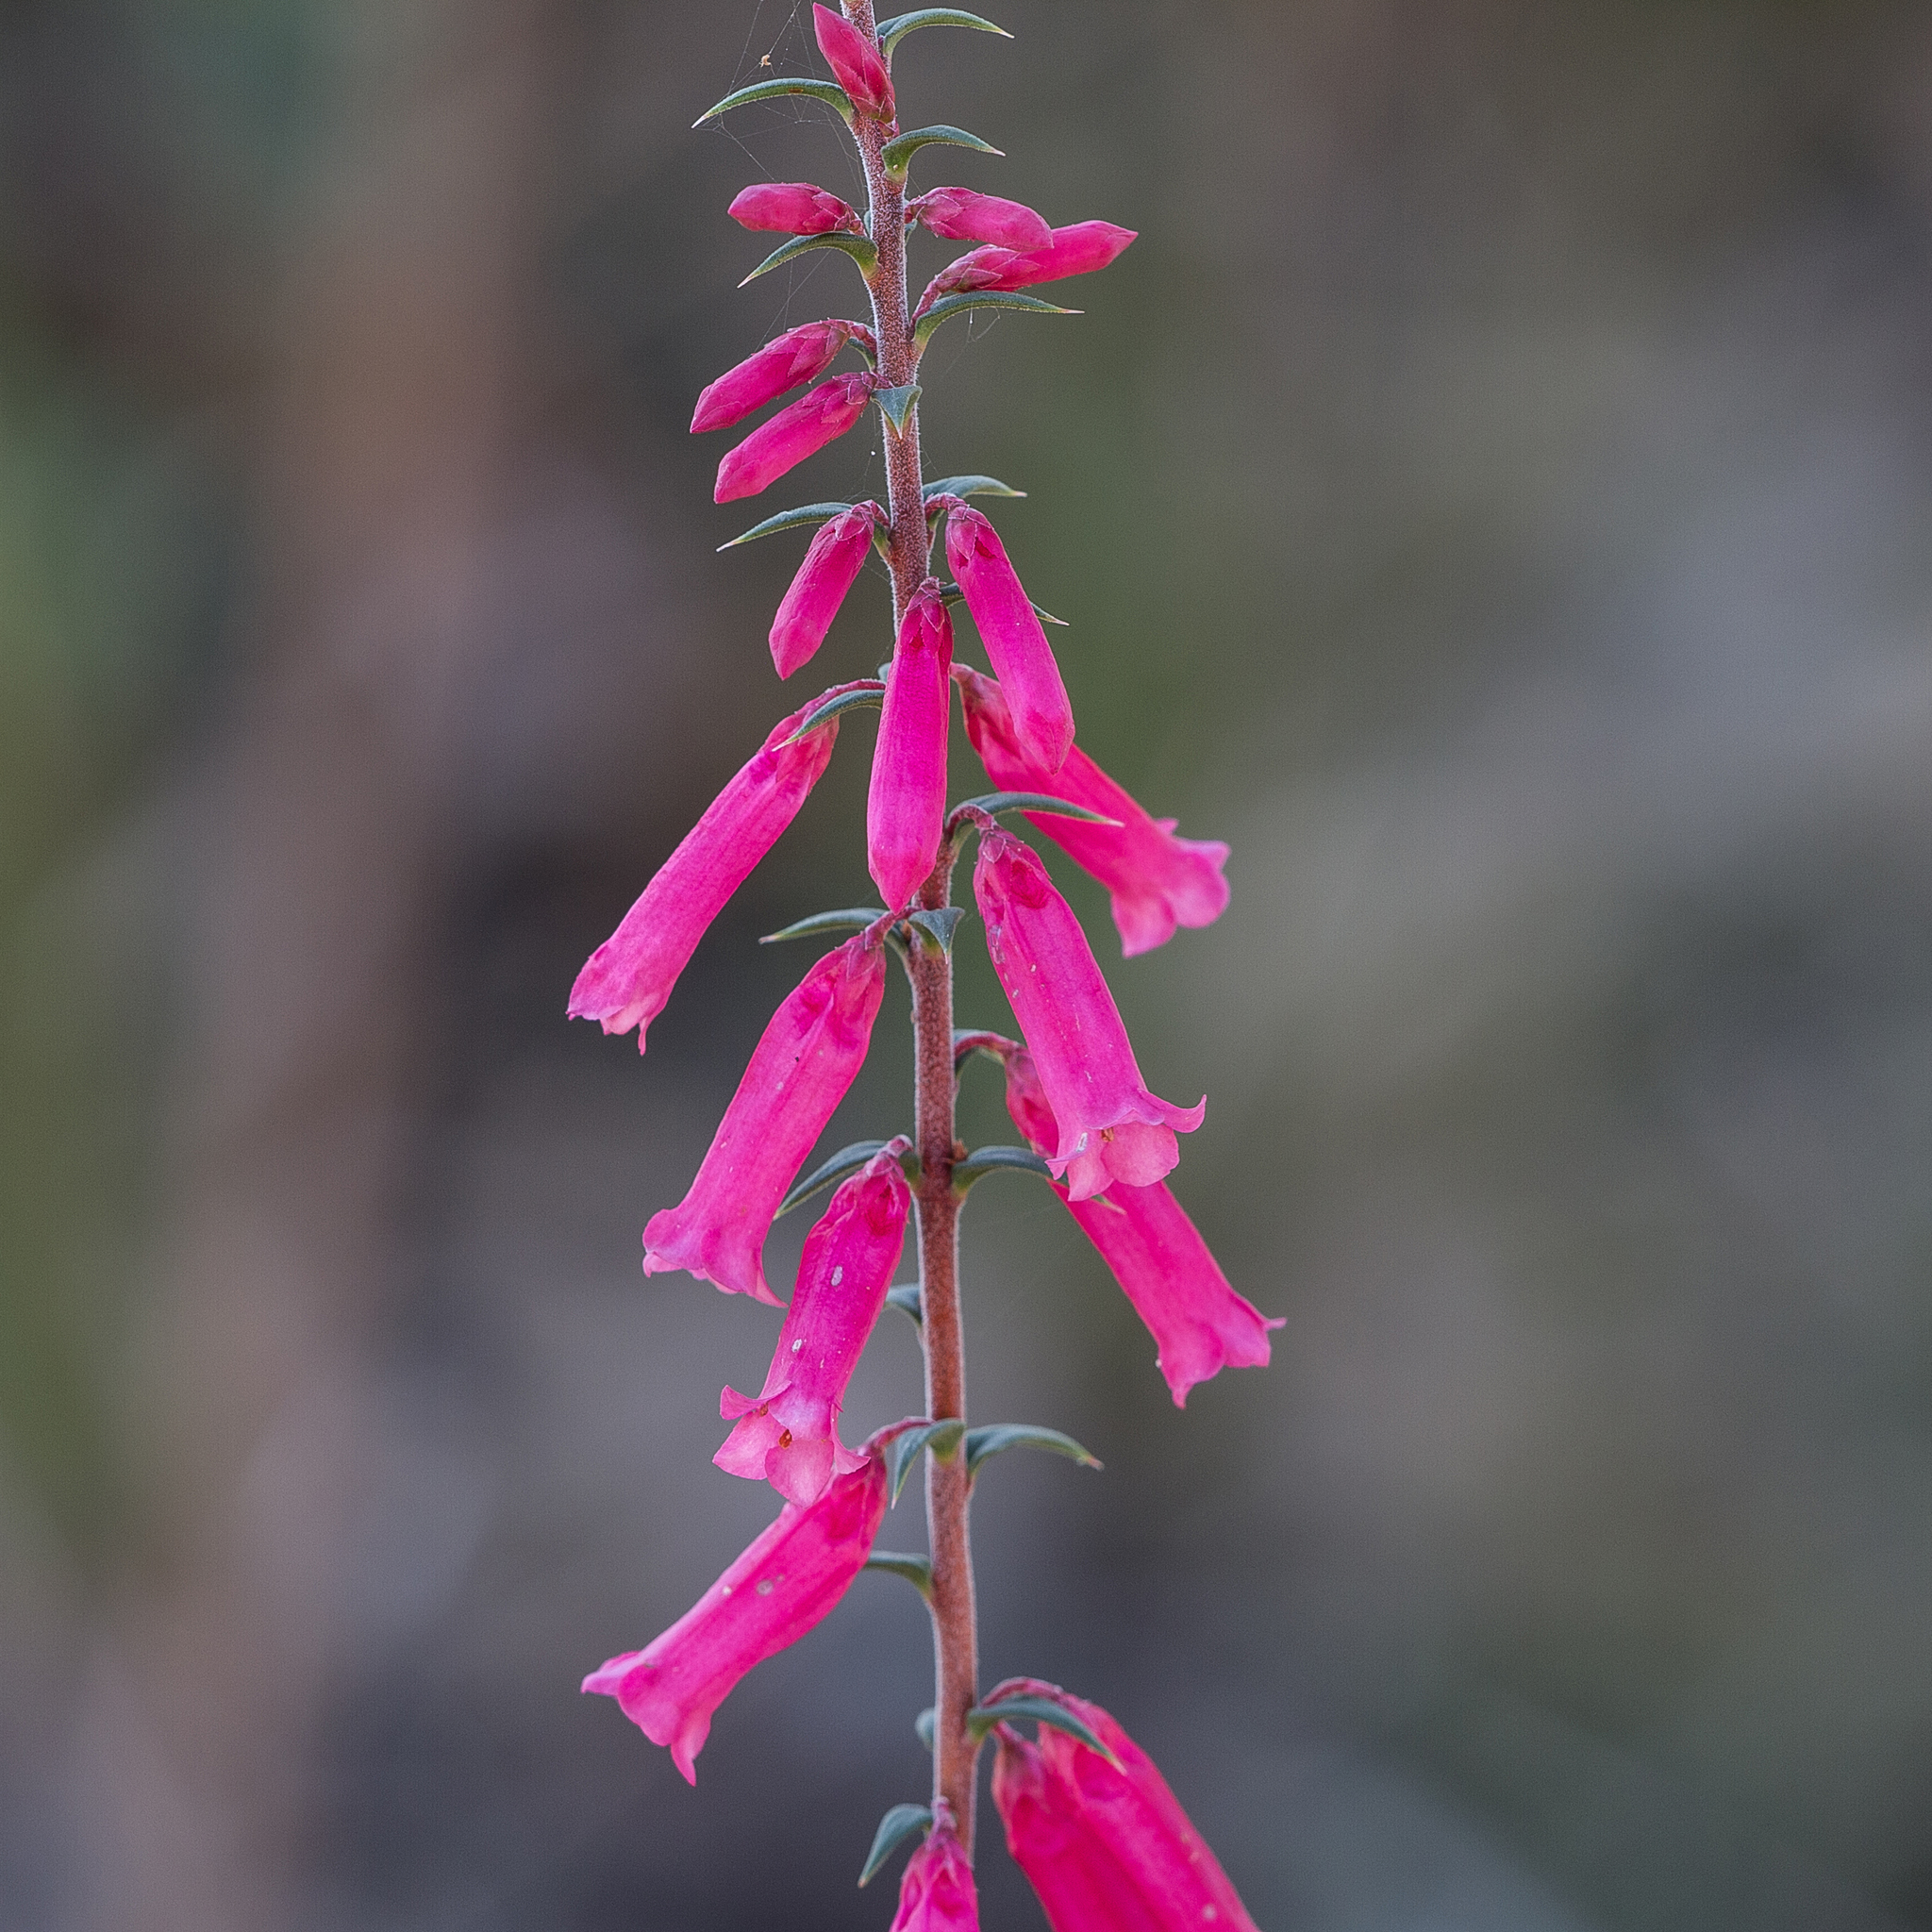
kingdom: Plantae
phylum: Tracheophyta
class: Magnoliopsida
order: Ericales
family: Ericaceae
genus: Epacris
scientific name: Epacris impressa
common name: Common-heath
